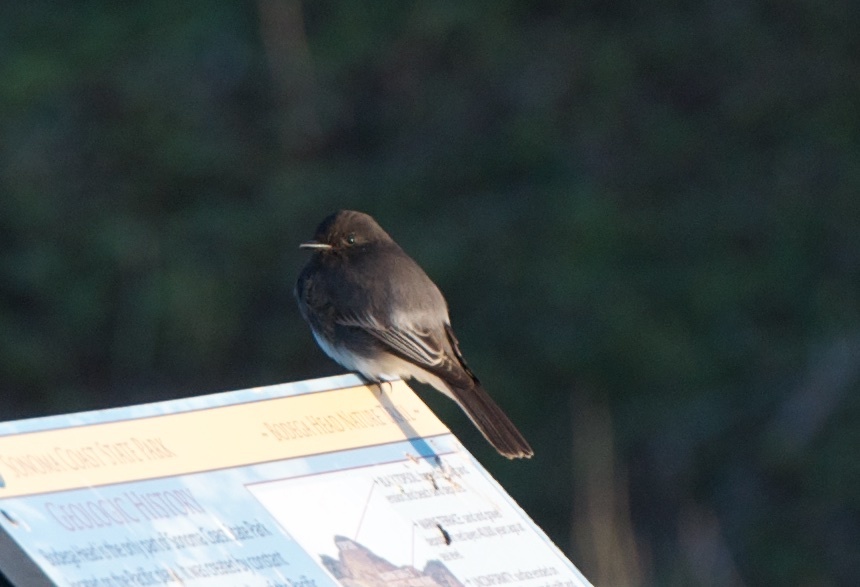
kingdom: Animalia
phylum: Chordata
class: Aves
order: Passeriformes
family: Tyrannidae
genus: Sayornis
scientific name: Sayornis nigricans
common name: Black phoebe
